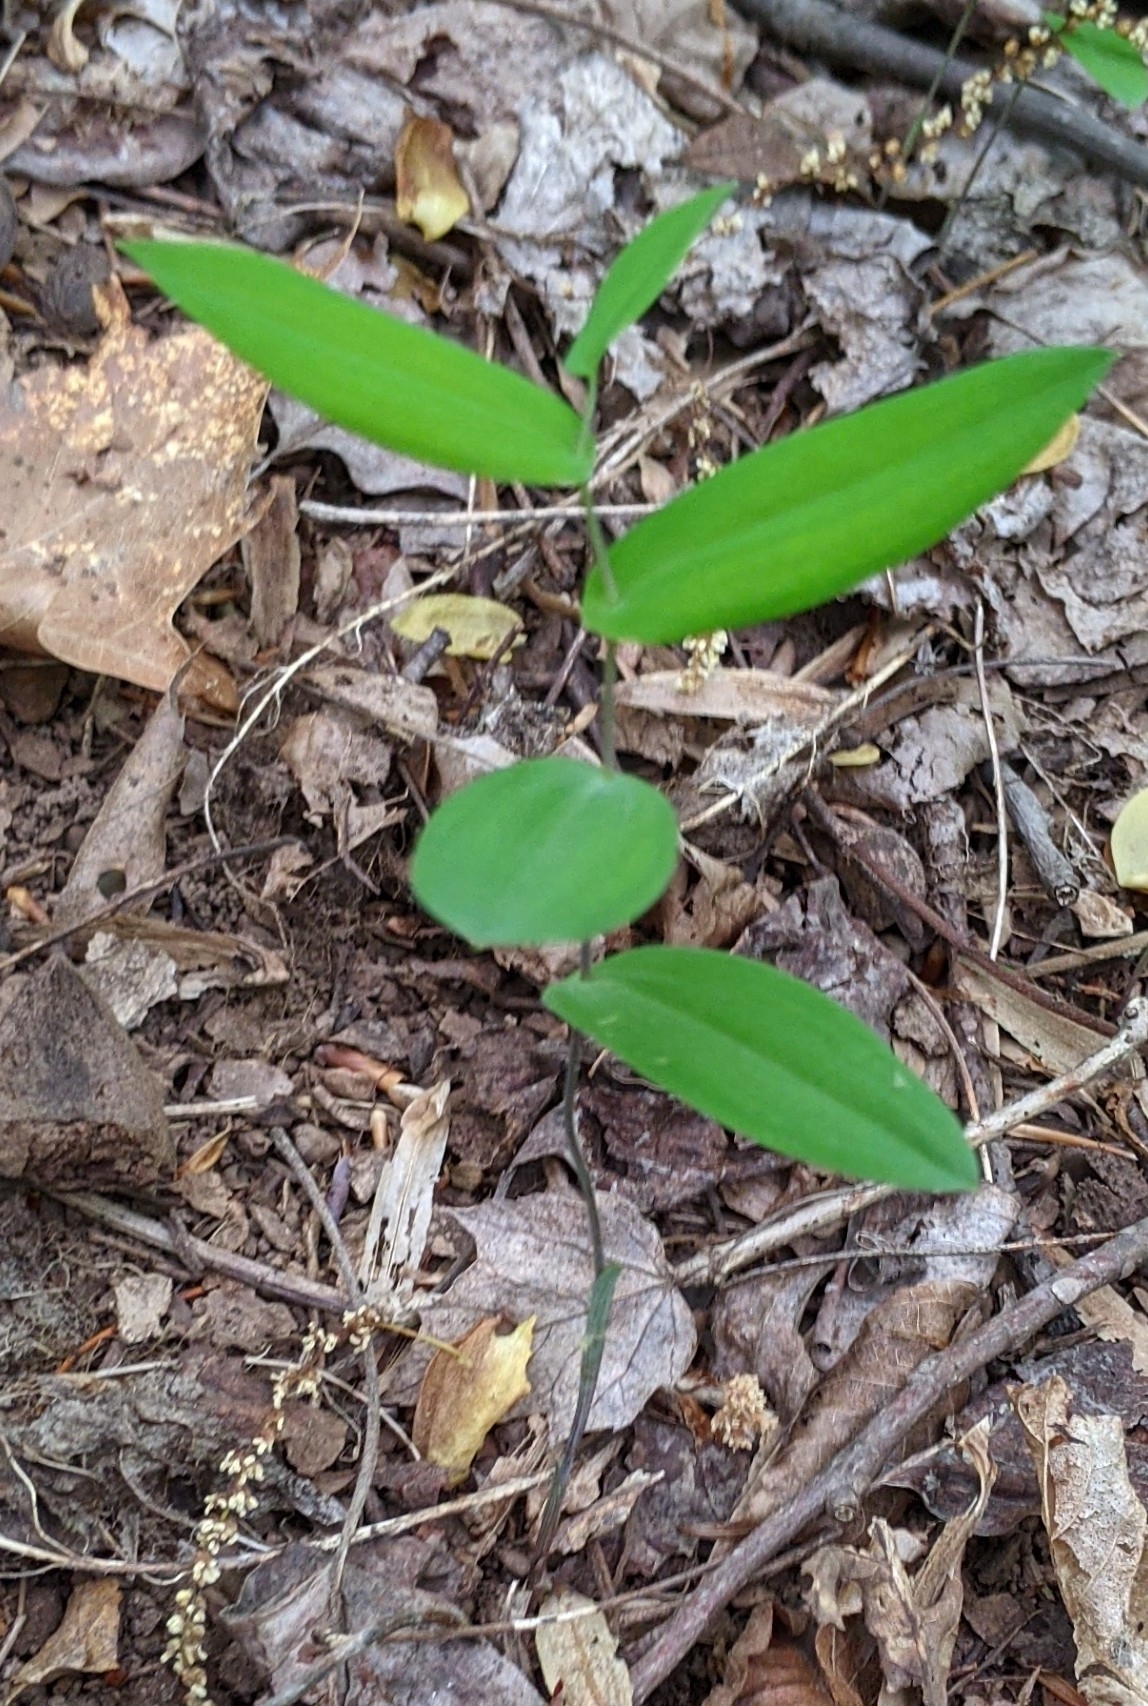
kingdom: Plantae
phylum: Tracheophyta
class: Liliopsida
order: Liliales
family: Colchicaceae
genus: Uvularia
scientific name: Uvularia perfoliata
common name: Perfoliate bellwort
